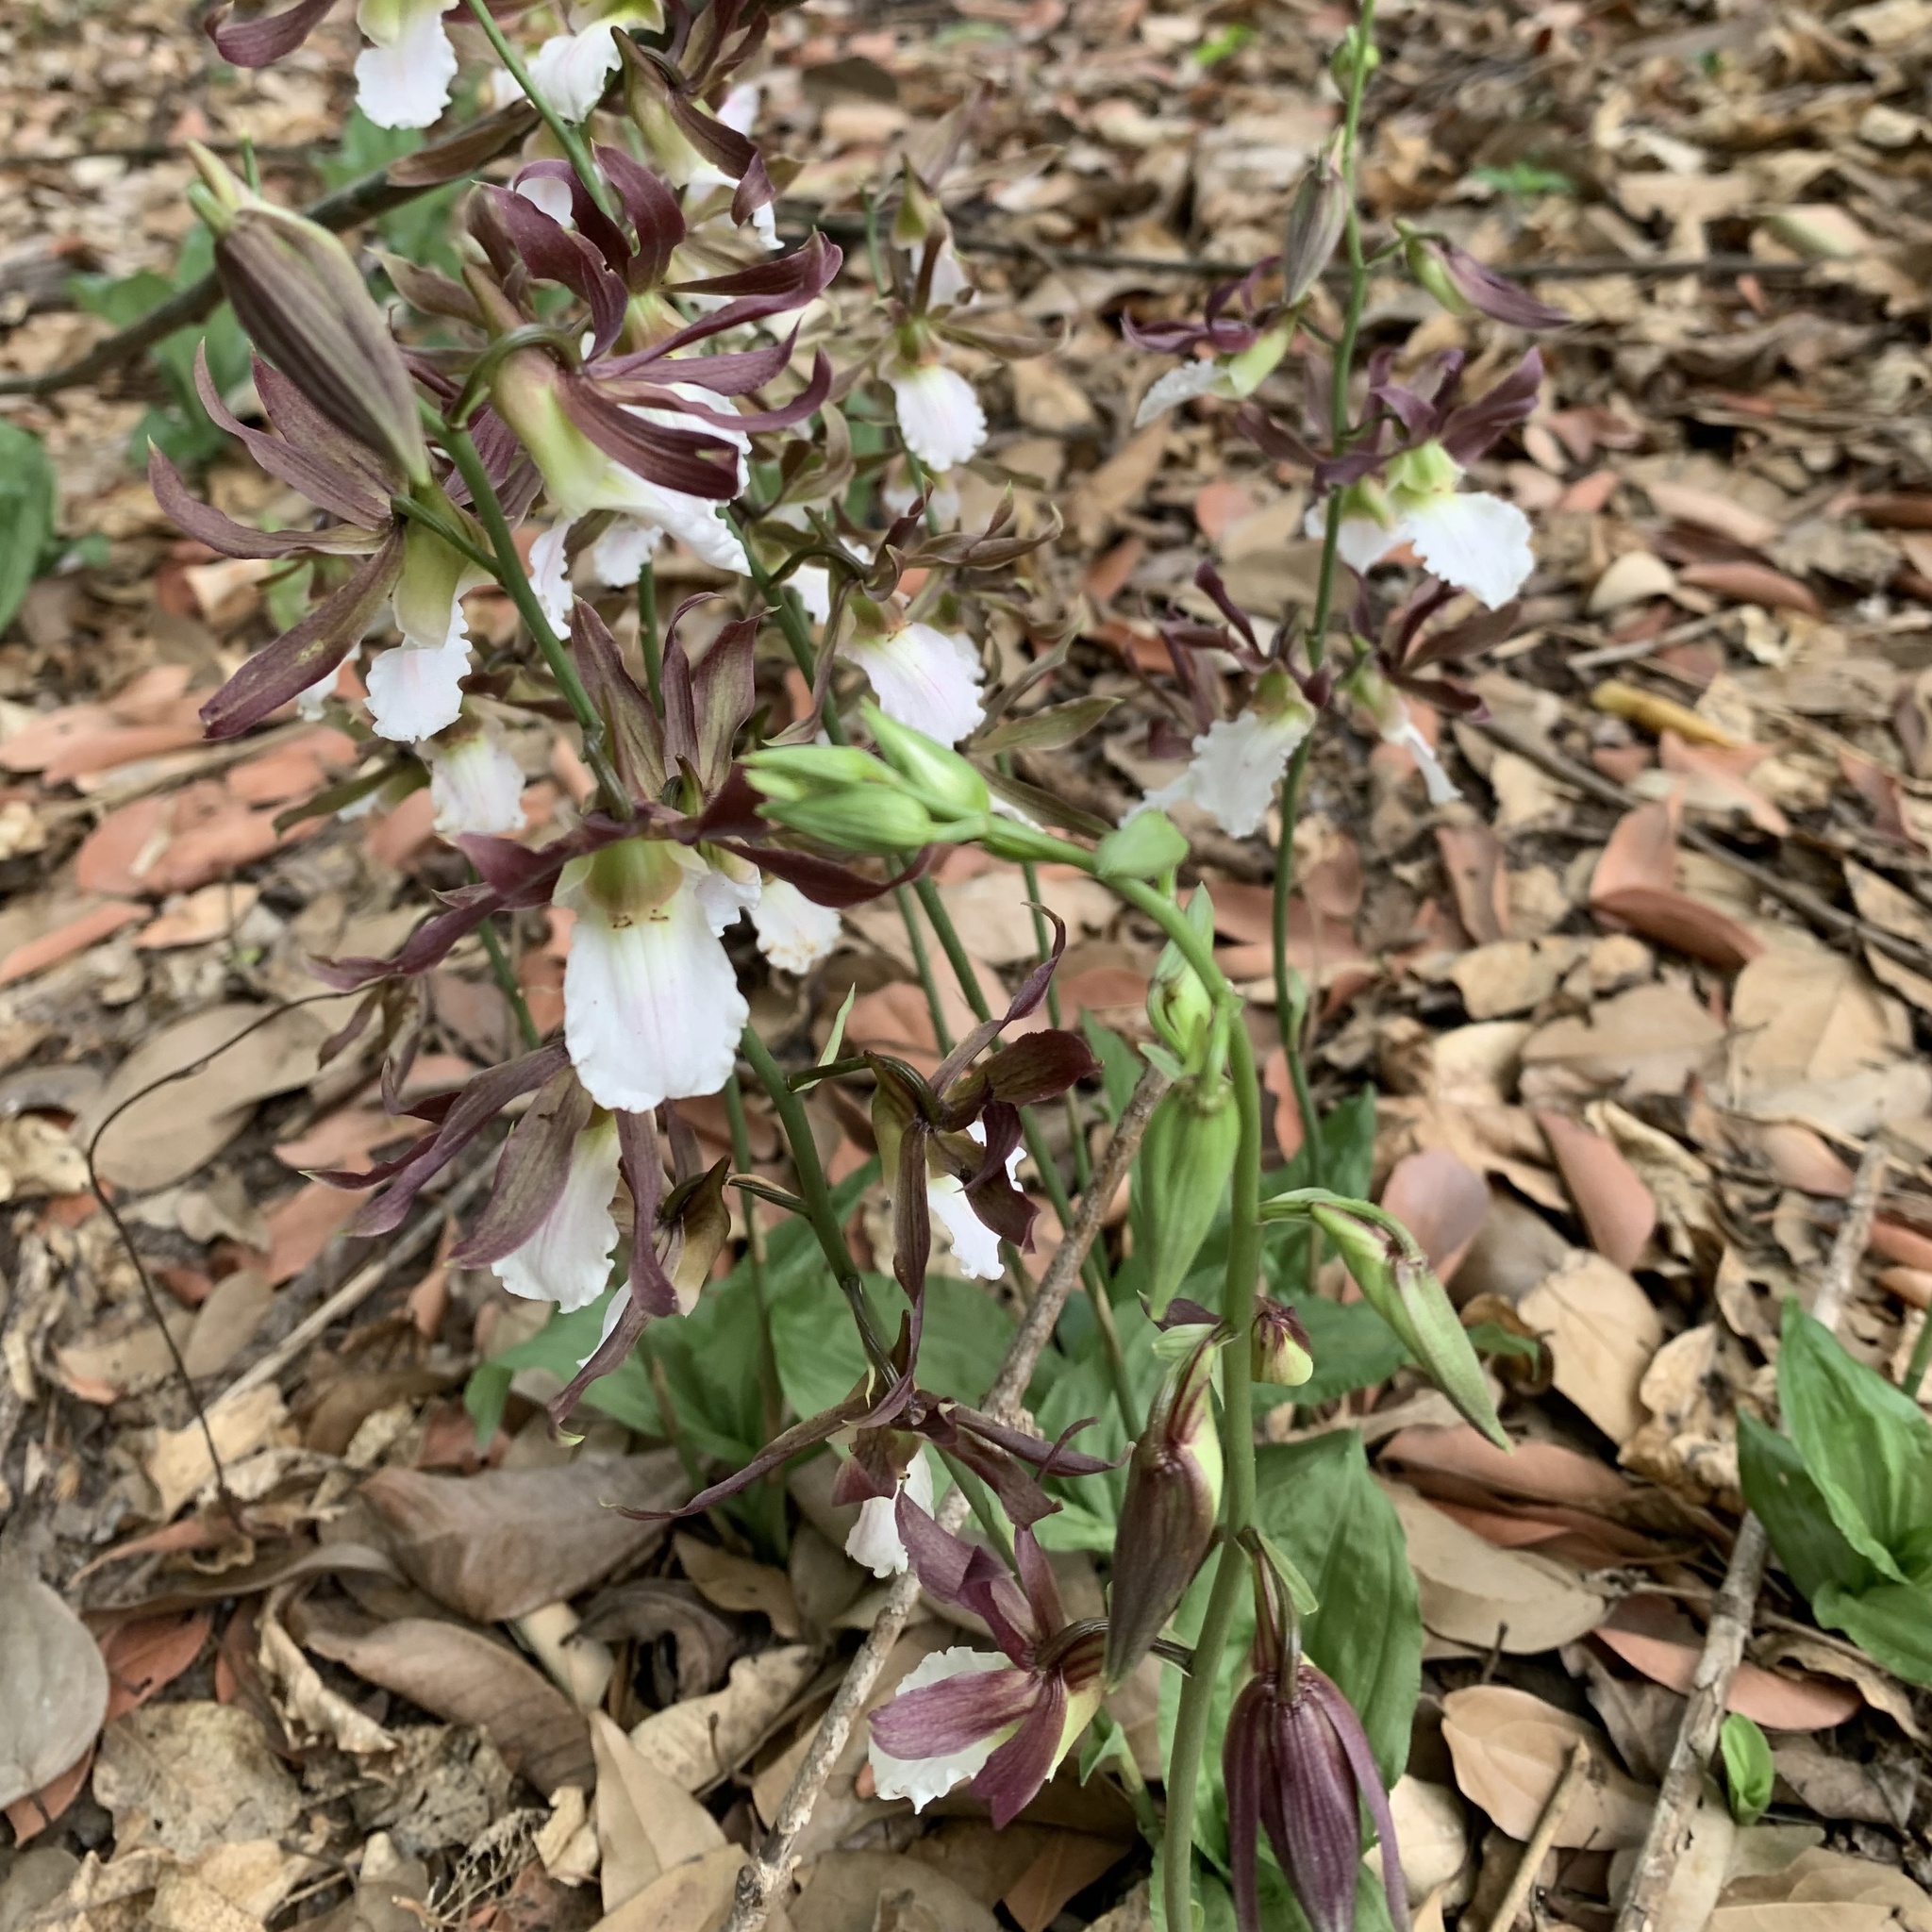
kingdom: Plantae
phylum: Tracheophyta
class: Liliopsida
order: Asparagales
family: Orchidaceae
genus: Eulophia
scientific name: Eulophia guineensis
